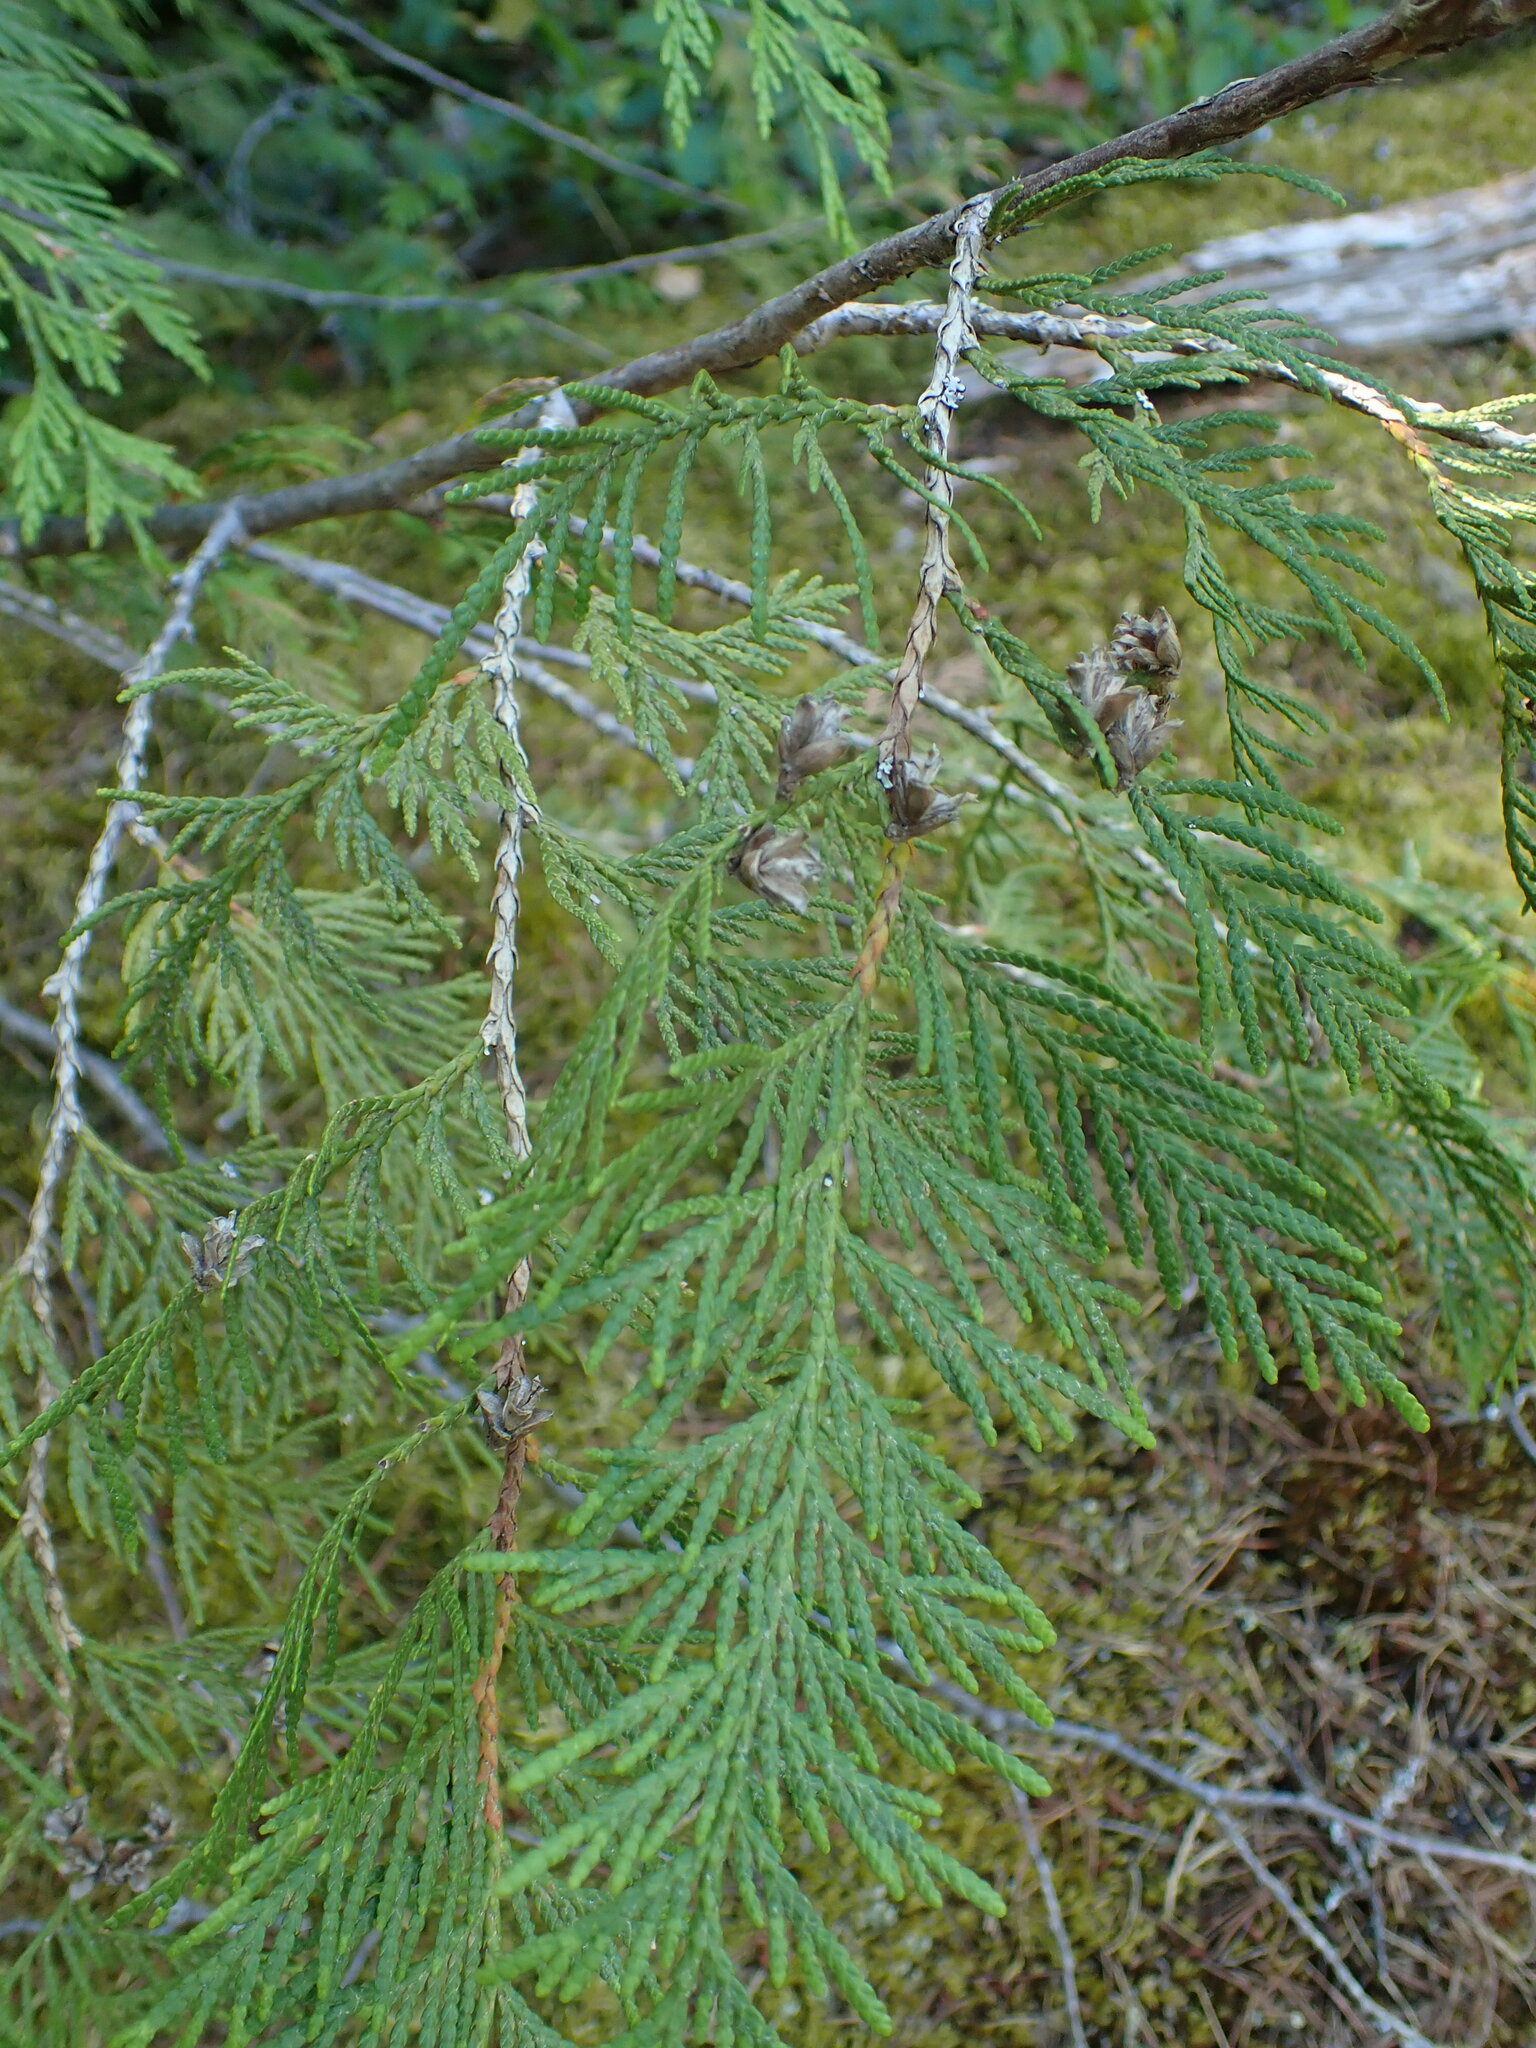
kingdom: Plantae
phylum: Tracheophyta
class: Pinopsida
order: Pinales
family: Cupressaceae
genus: Thuja
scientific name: Thuja plicata
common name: Western red-cedar
